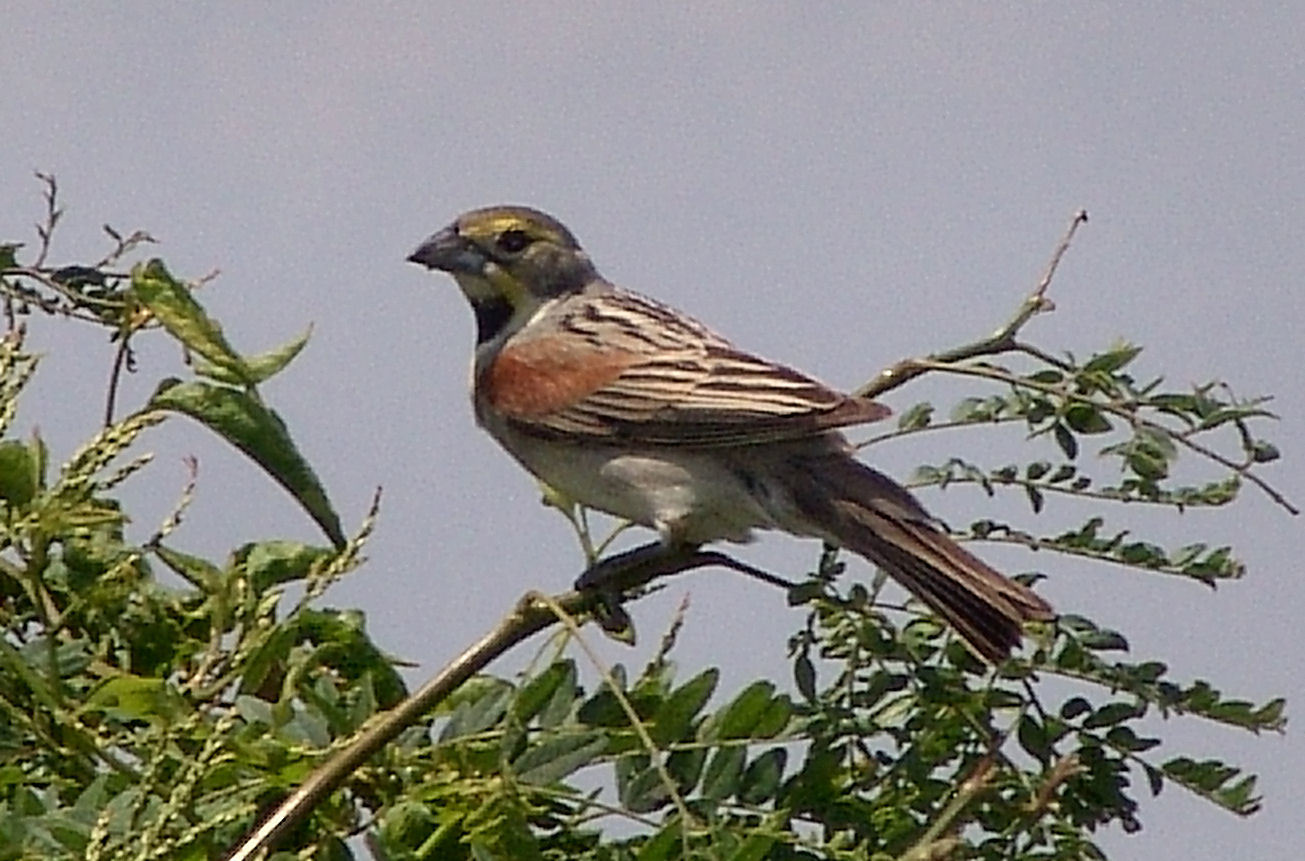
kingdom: Animalia
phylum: Chordata
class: Aves
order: Passeriformes
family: Cardinalidae
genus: Spiza
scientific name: Spiza americana
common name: Dickcissel
